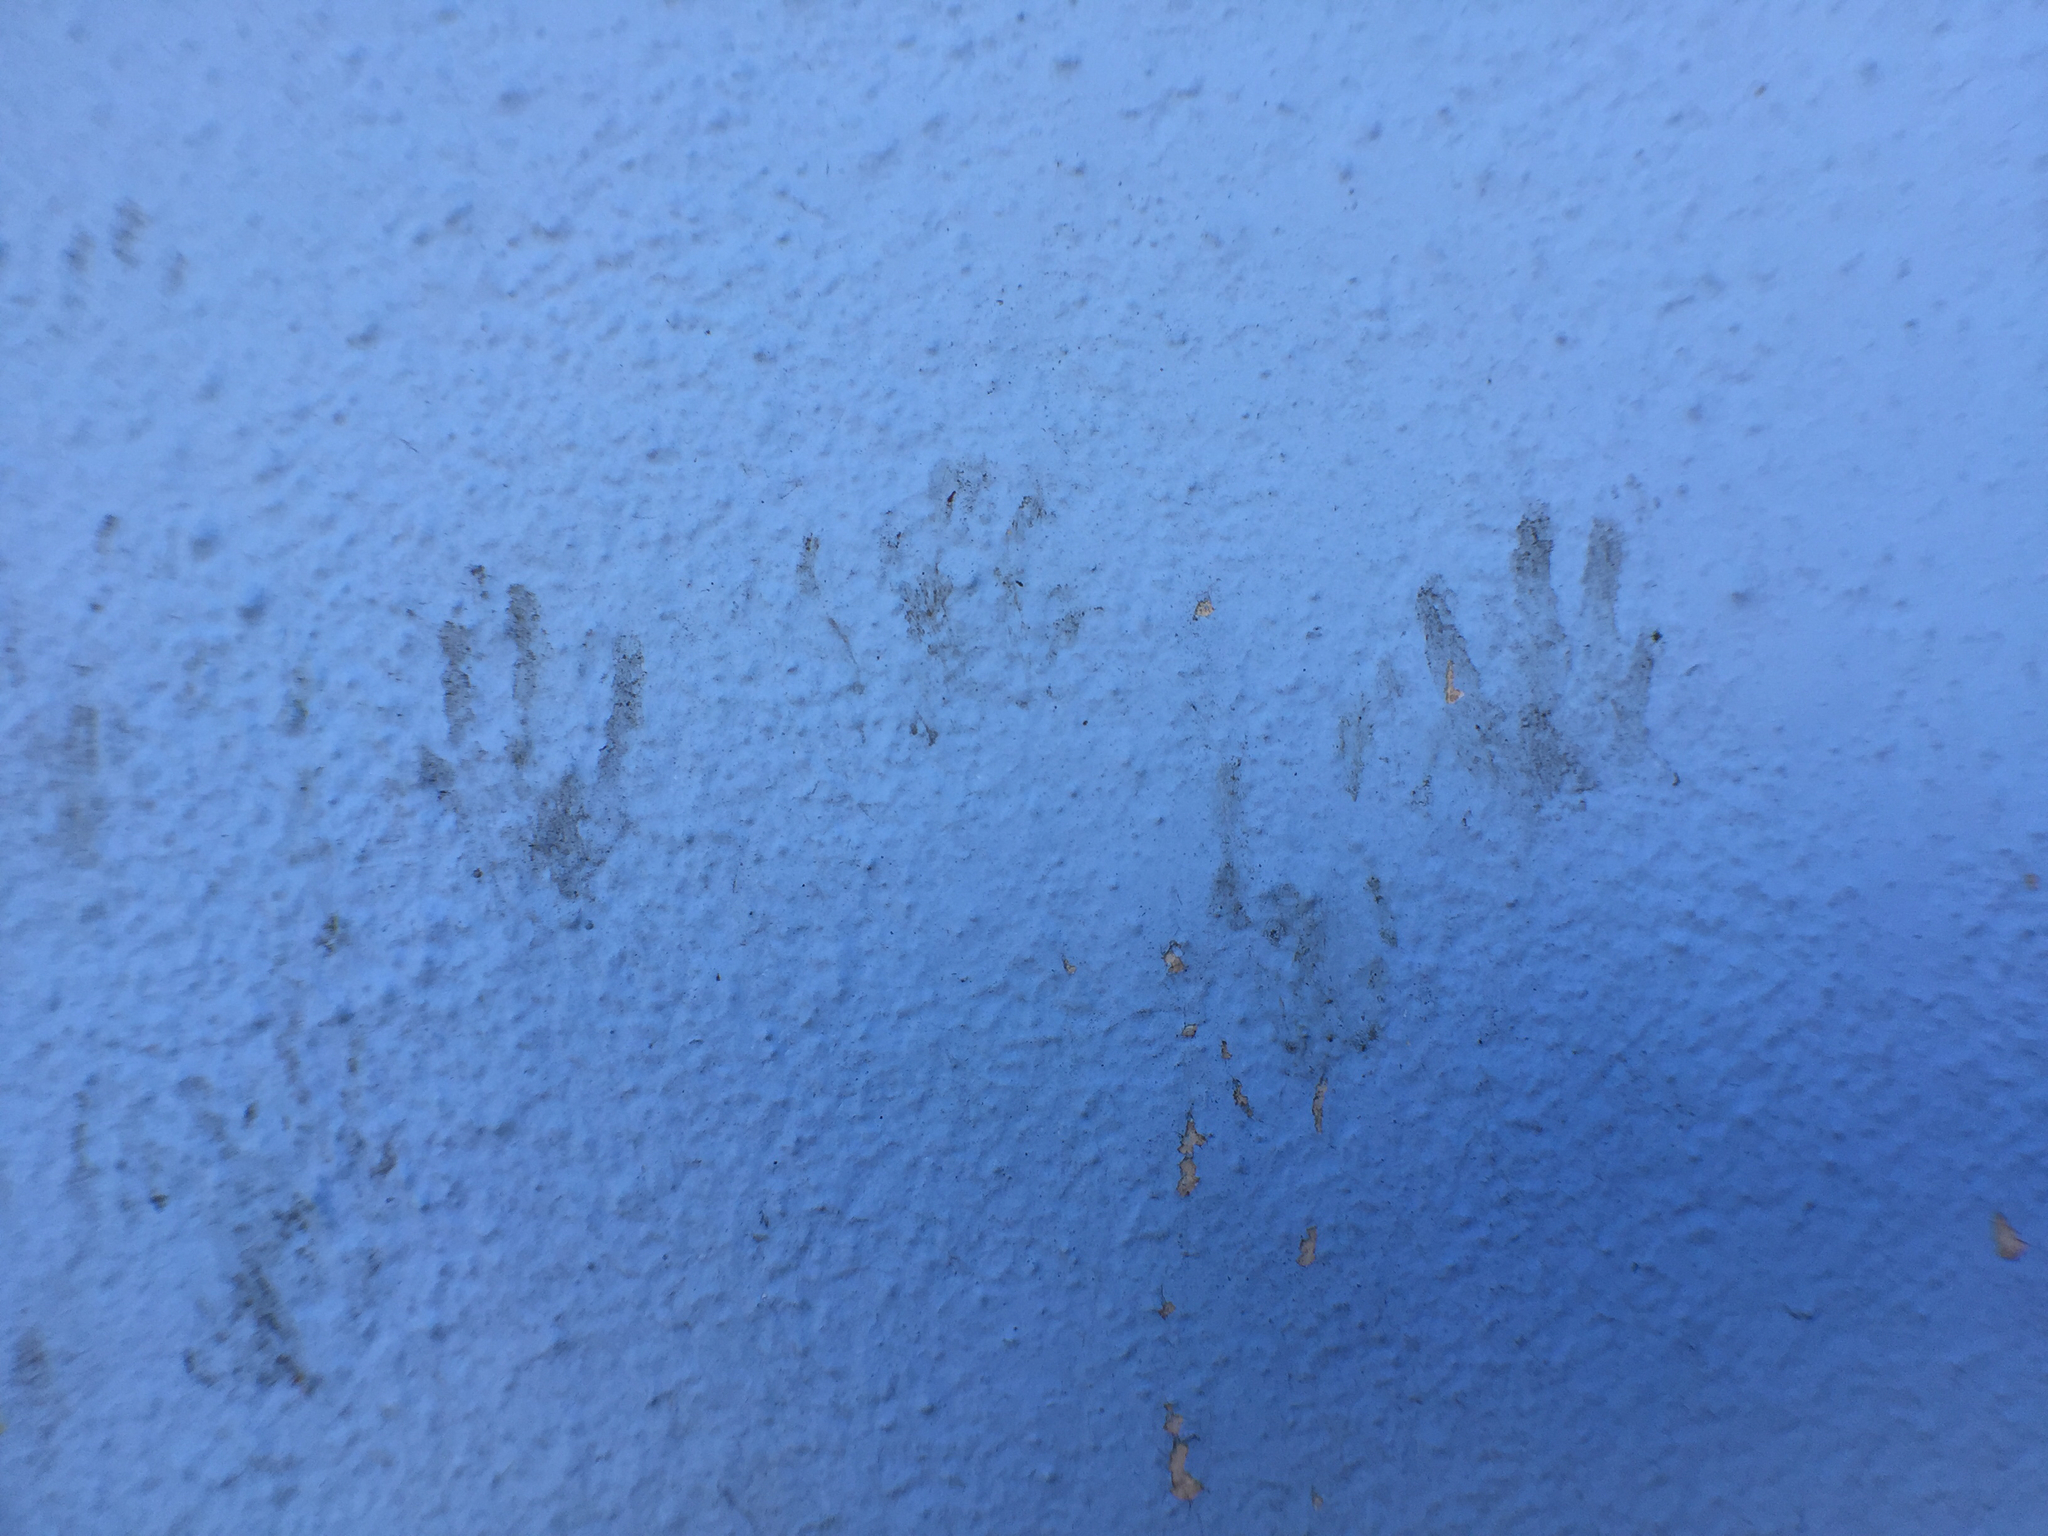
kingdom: Animalia
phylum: Chordata
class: Mammalia
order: Carnivora
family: Procyonidae
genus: Procyon
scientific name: Procyon lotor
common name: Raccoon
